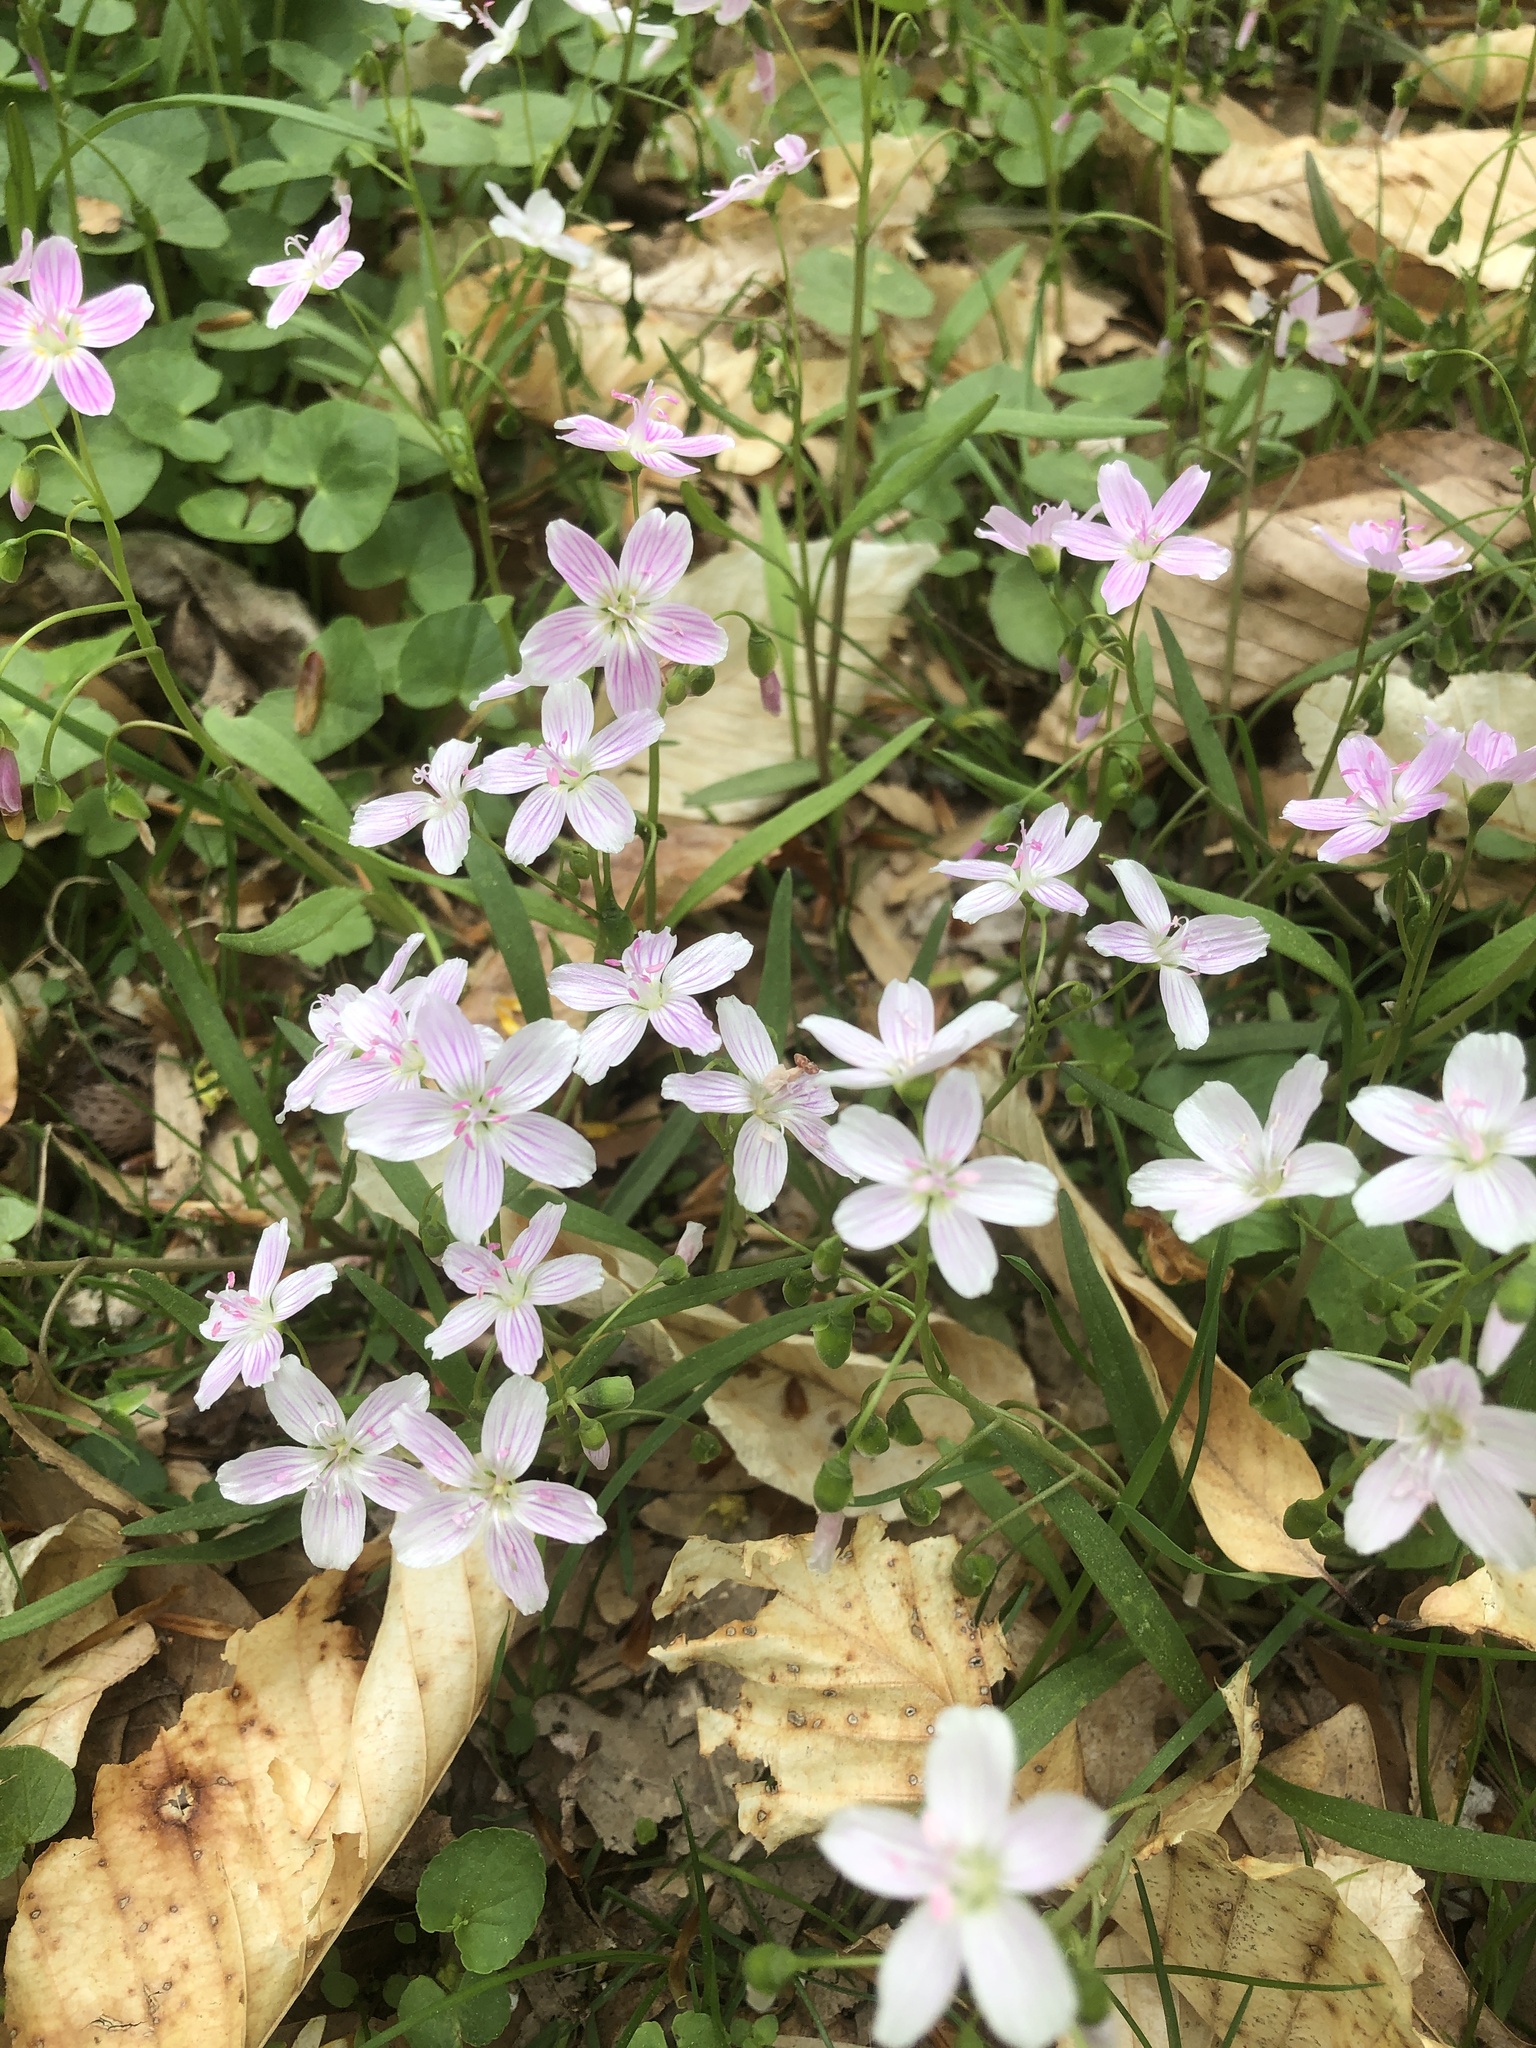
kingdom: Plantae
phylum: Tracheophyta
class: Magnoliopsida
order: Caryophyllales
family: Montiaceae
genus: Claytonia
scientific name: Claytonia virginica
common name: Virginia springbeauty
